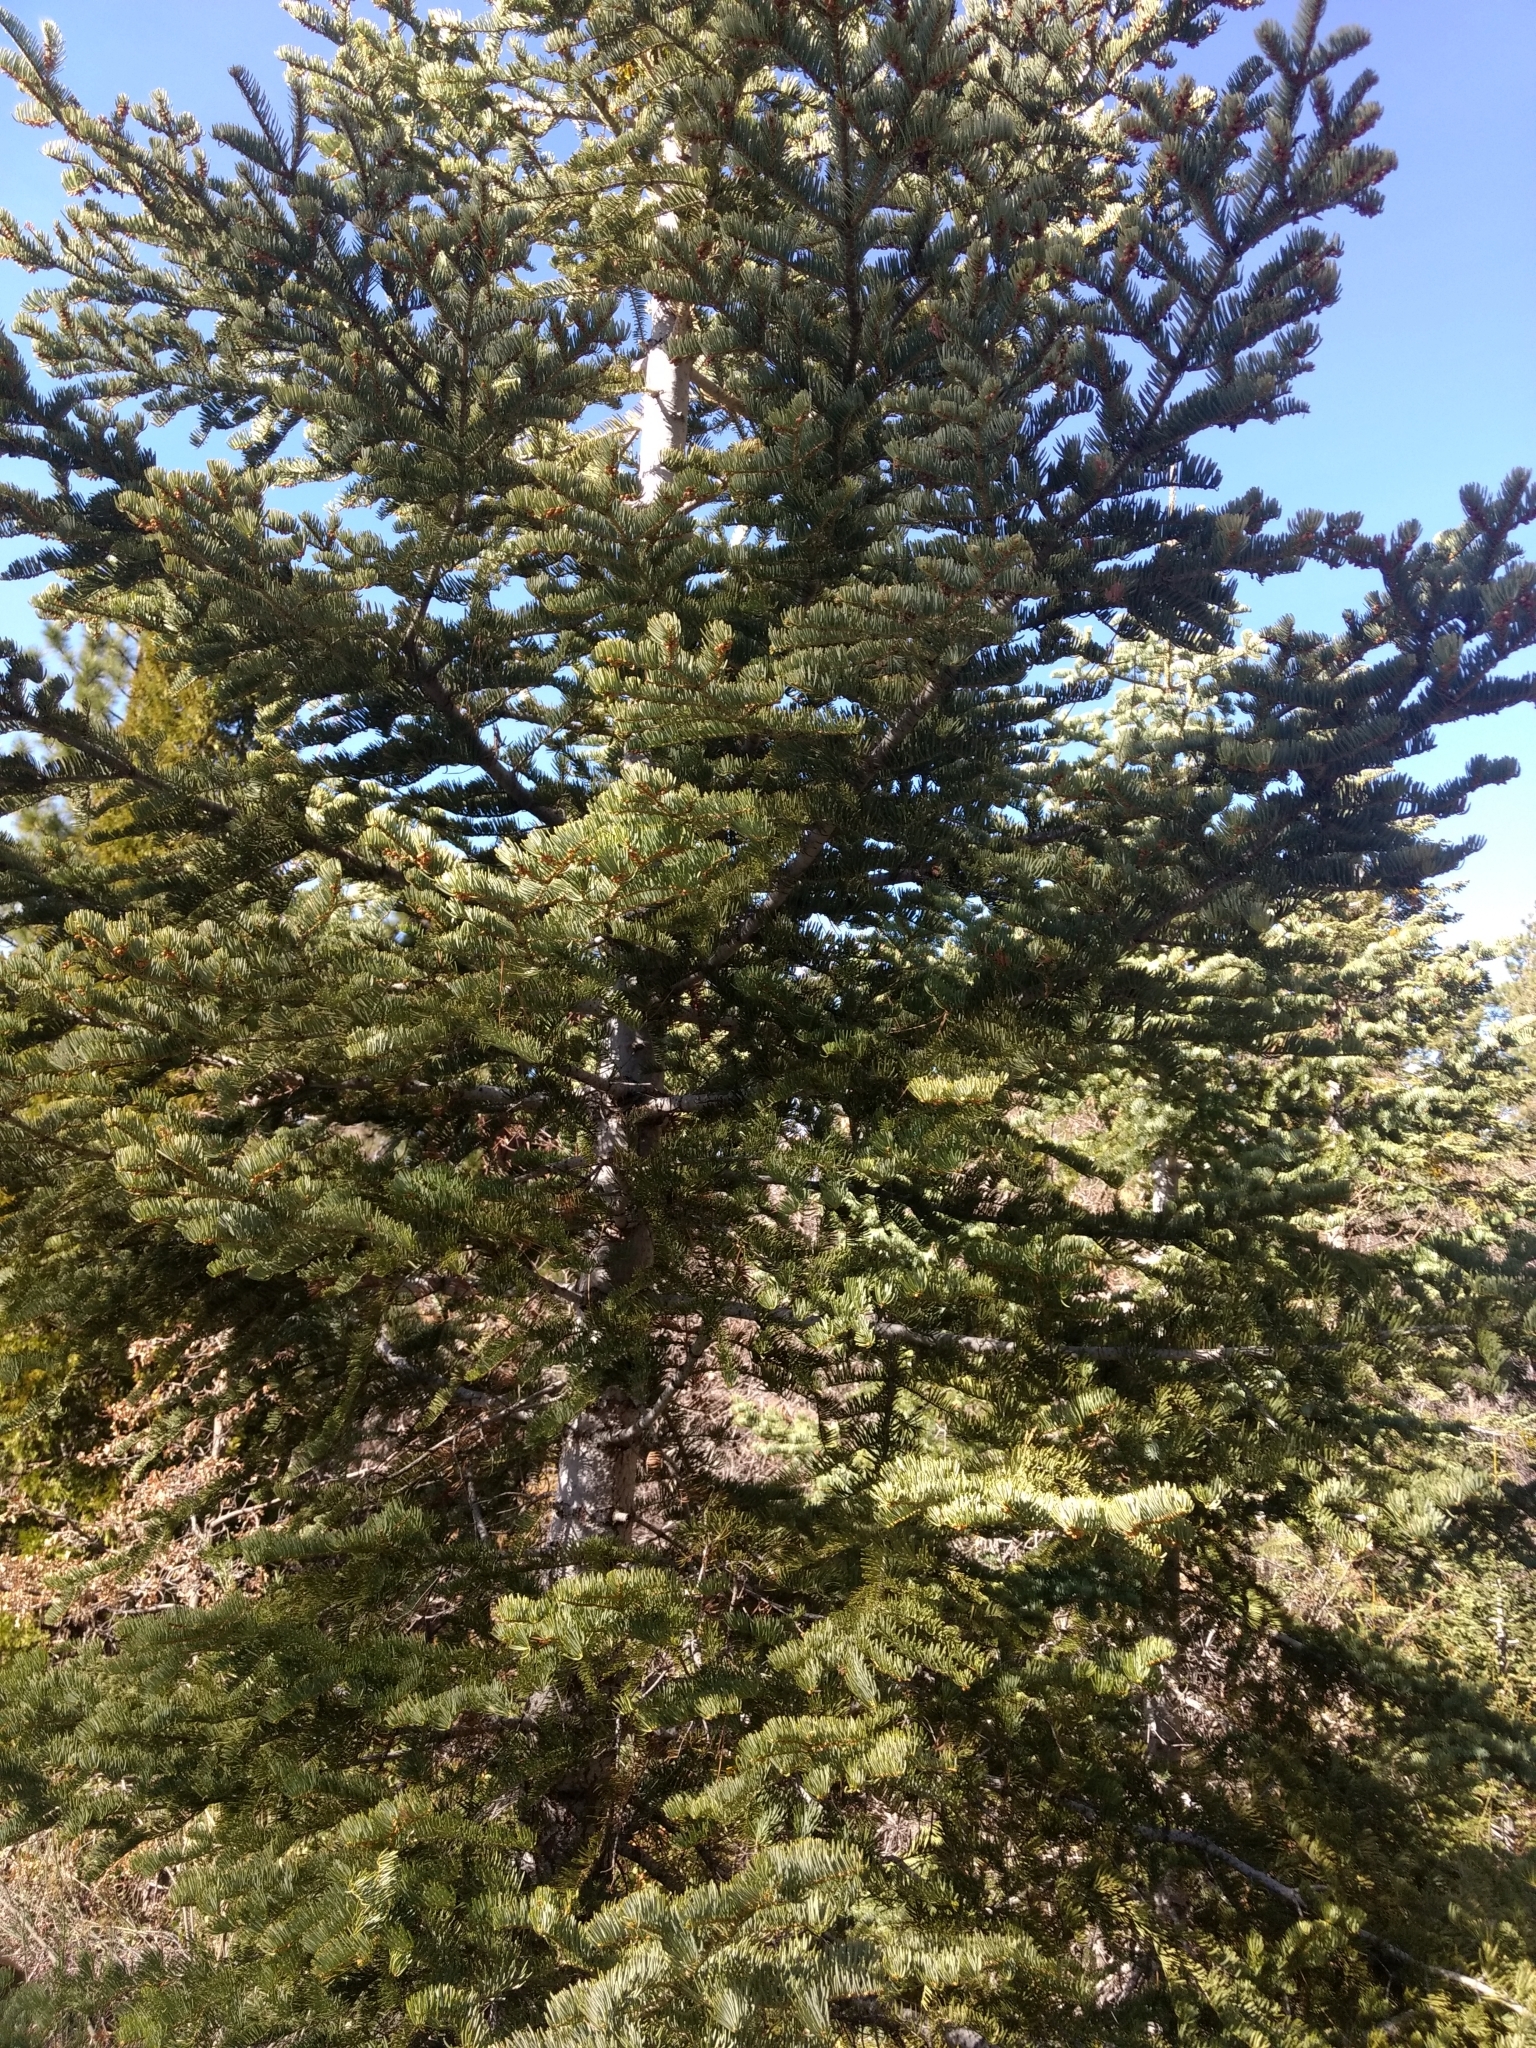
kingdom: Plantae
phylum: Tracheophyta
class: Pinopsida
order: Pinales
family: Pinaceae
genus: Abies
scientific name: Abies concolor
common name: Colorado fir
